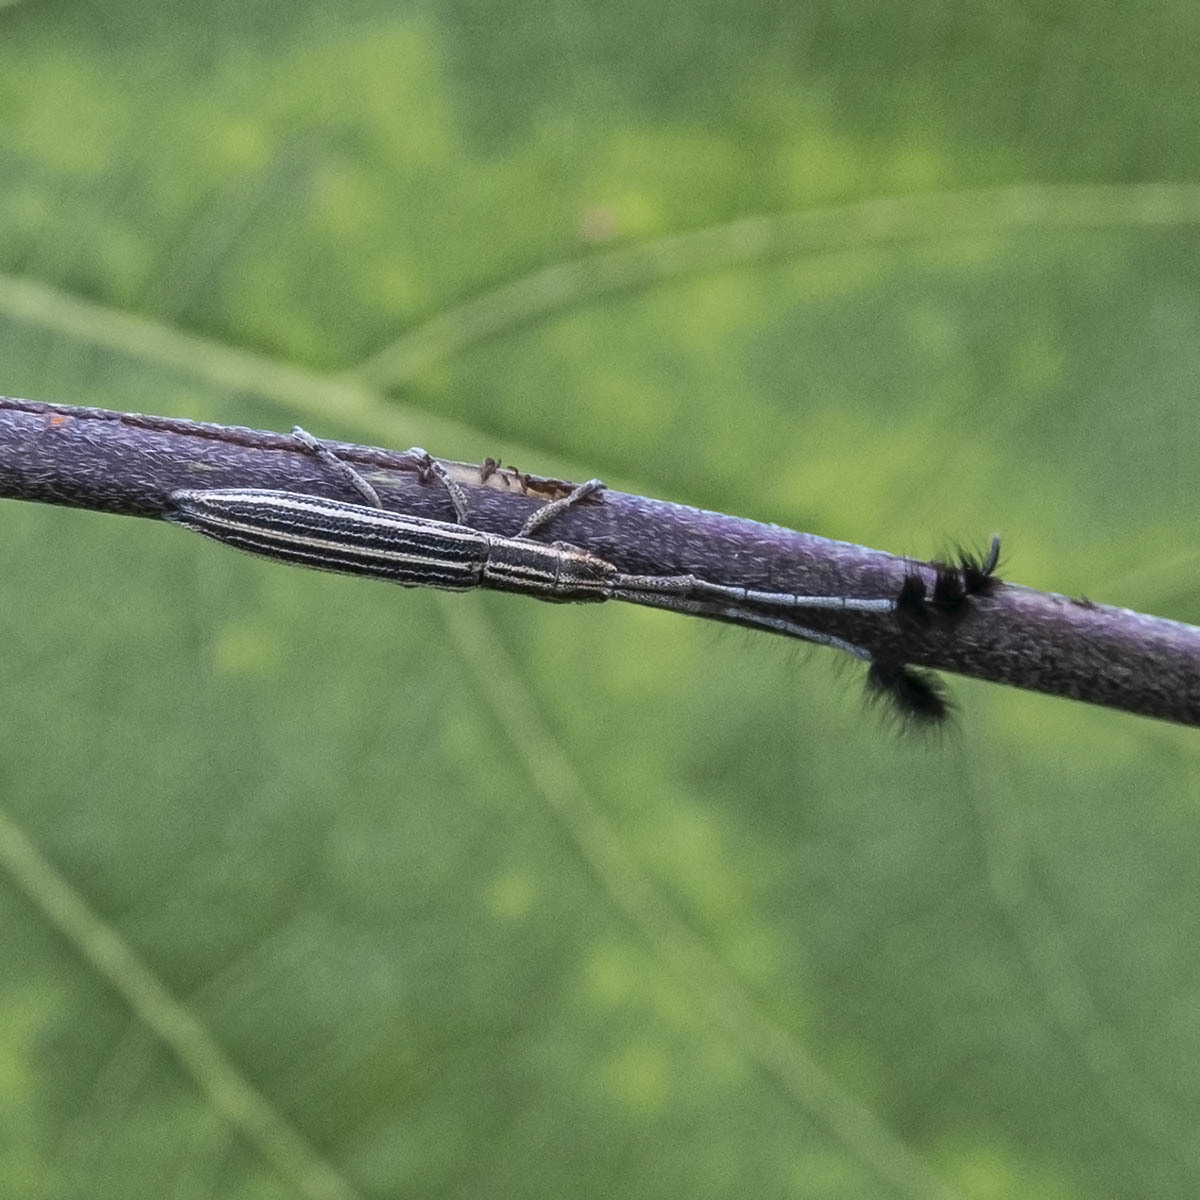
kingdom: Animalia
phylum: Arthropoda
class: Insecta
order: Coleoptera
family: Cerambycidae
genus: Eucomatocera
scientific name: Eucomatocera vittata
